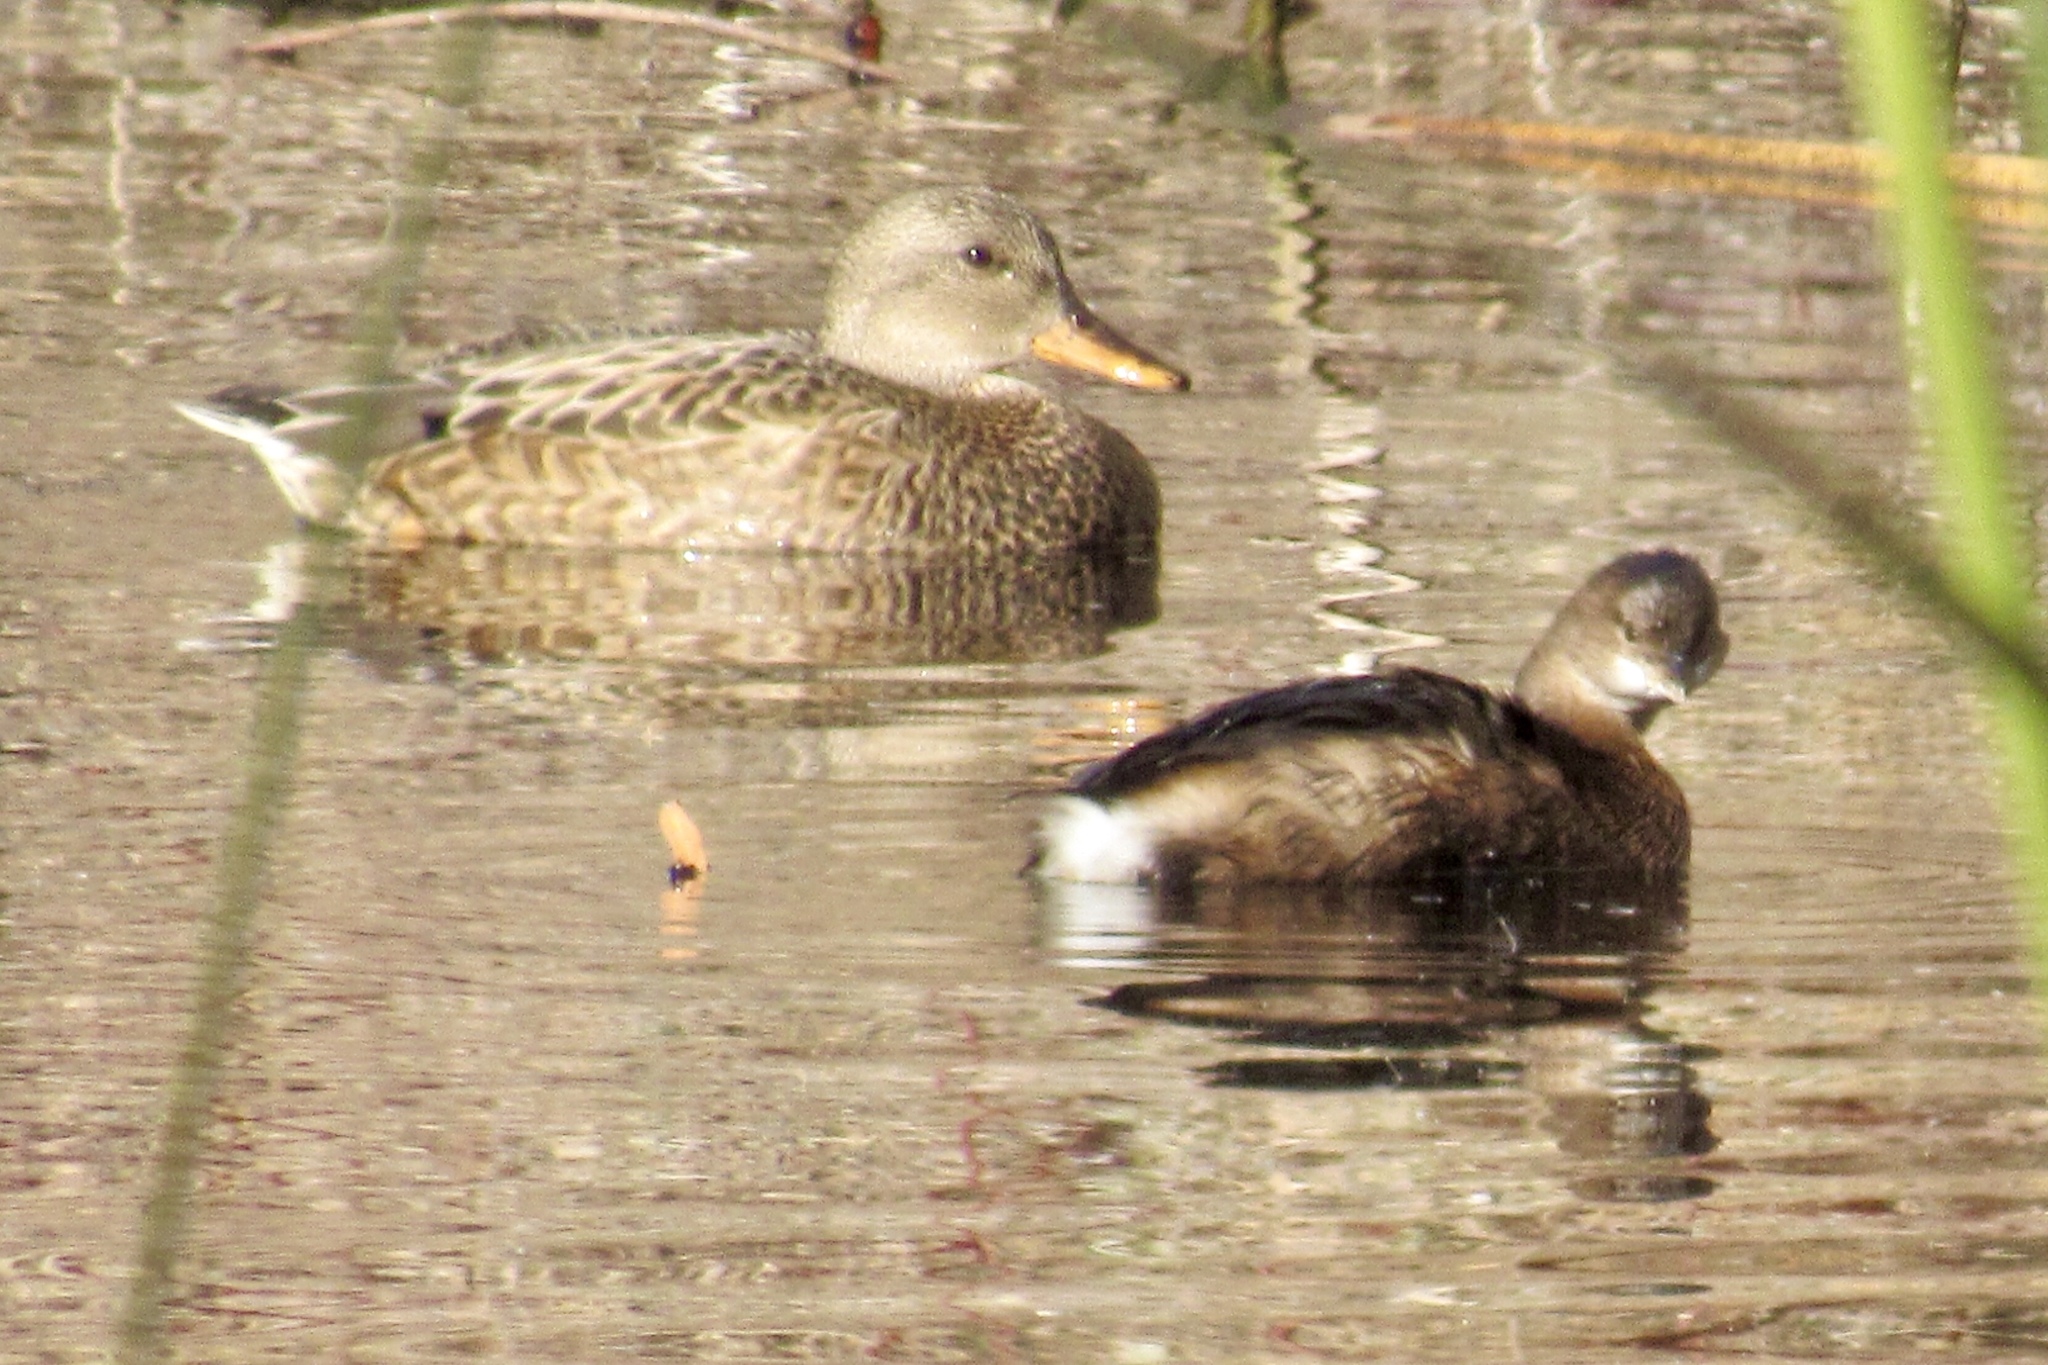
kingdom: Animalia
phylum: Chordata
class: Aves
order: Anseriformes
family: Anatidae
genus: Mareca
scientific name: Mareca strepera
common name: Gadwall
